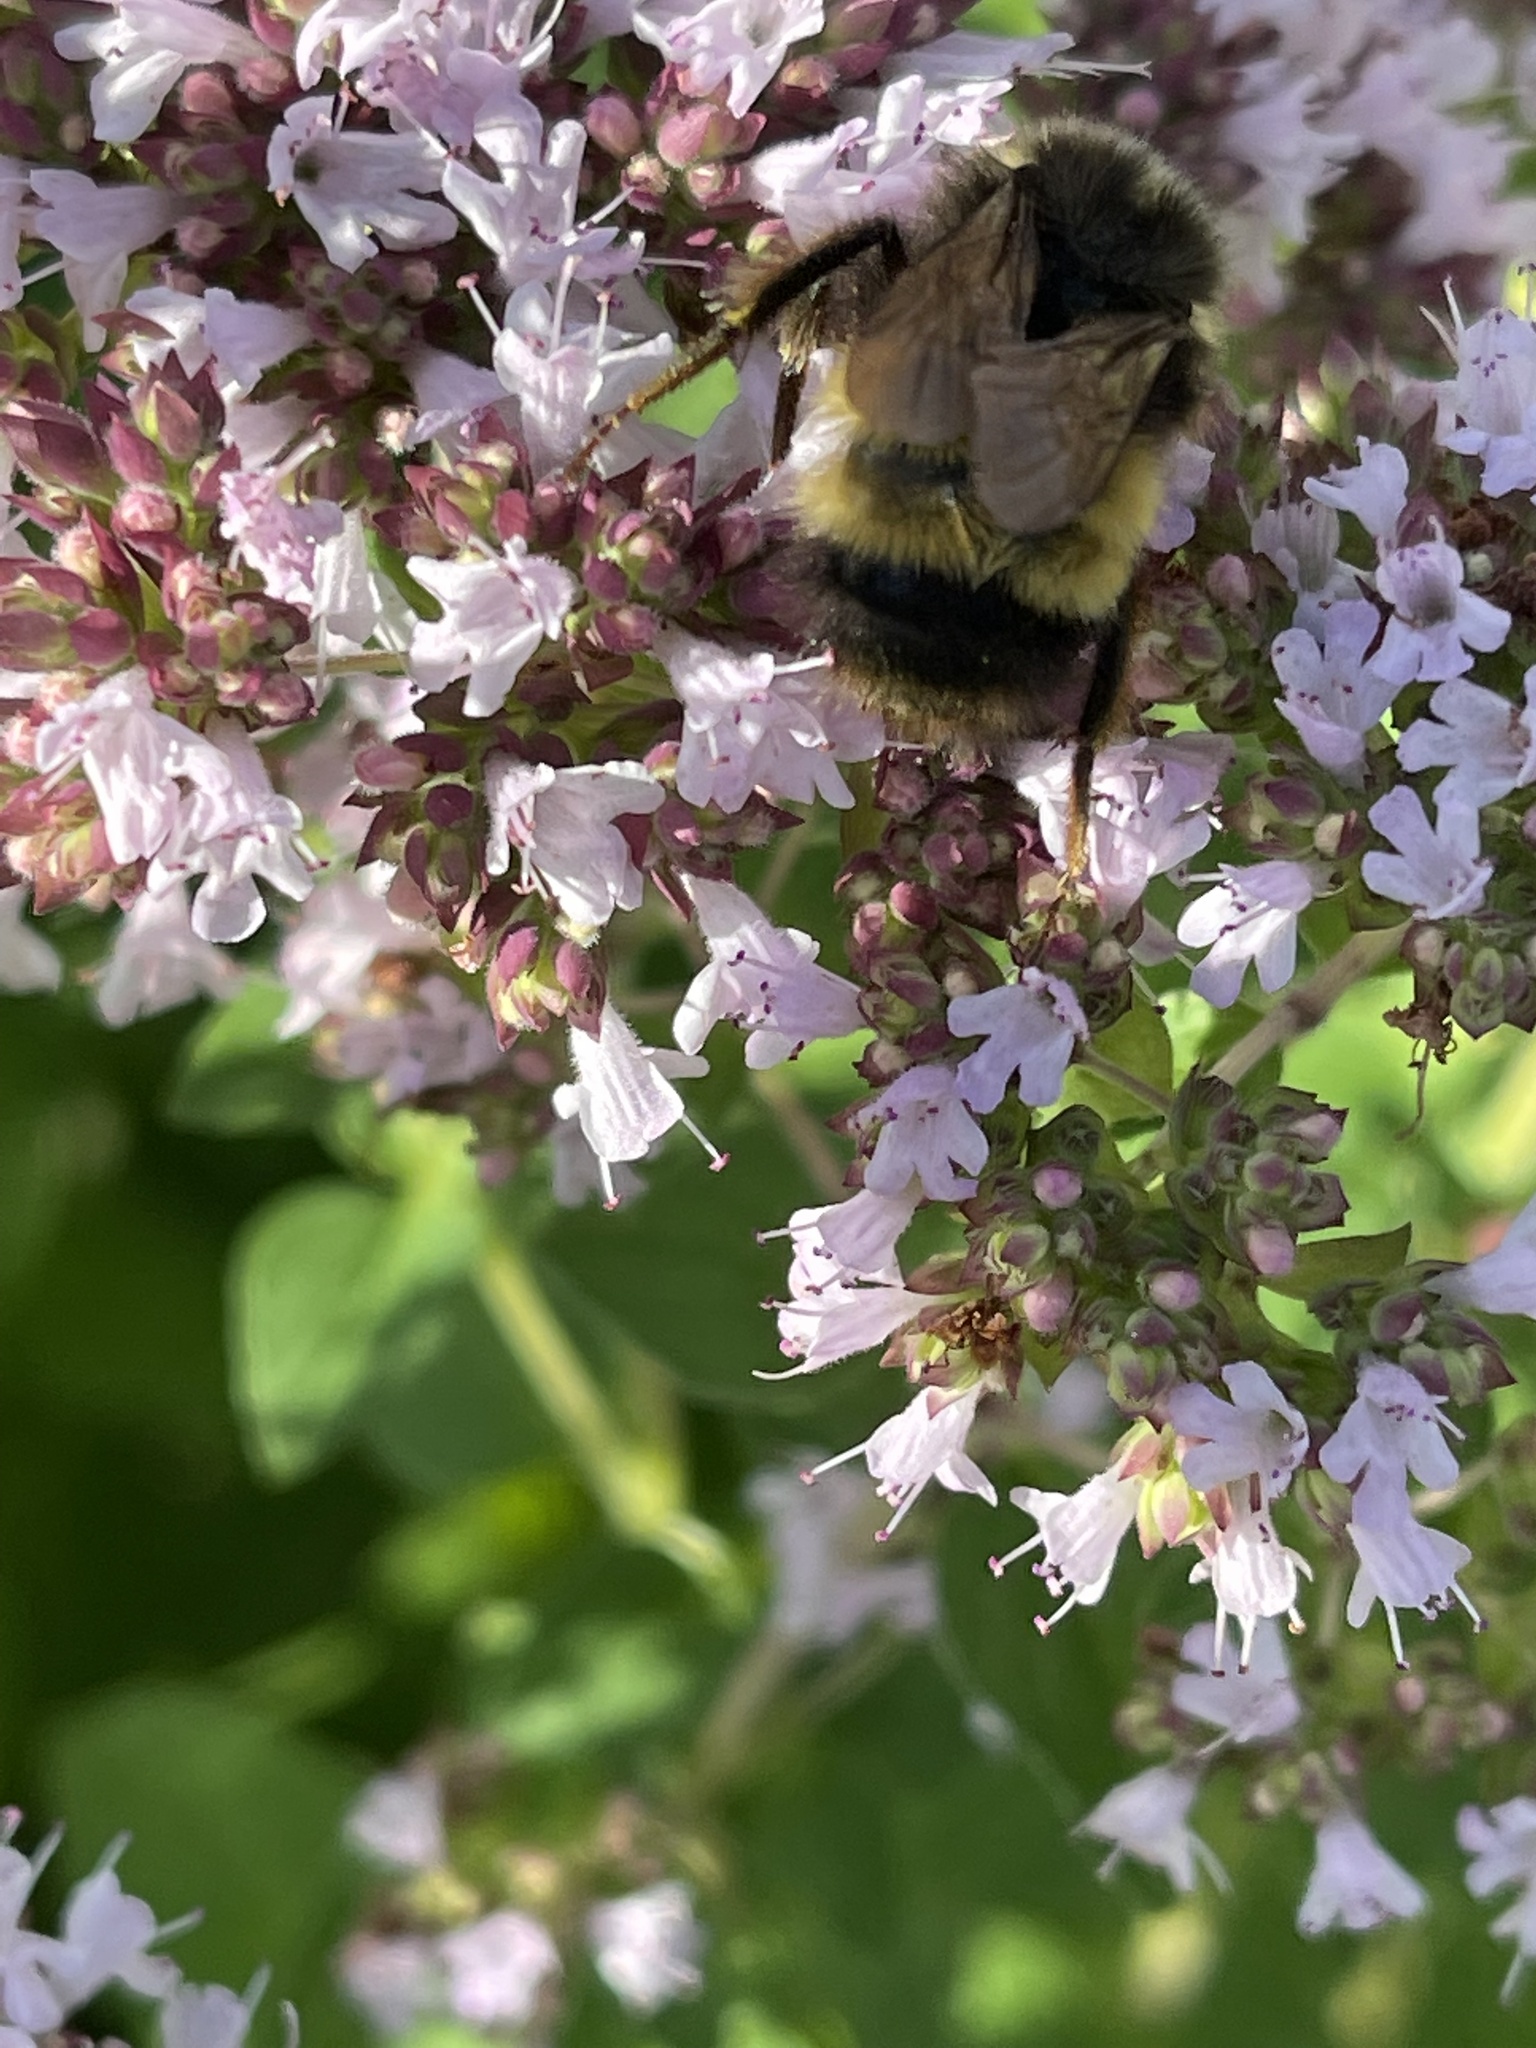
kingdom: Animalia
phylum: Arthropoda
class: Insecta
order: Hymenoptera
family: Apidae
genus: Bombus
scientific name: Bombus terricola
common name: Yellow-banded bumble bee
